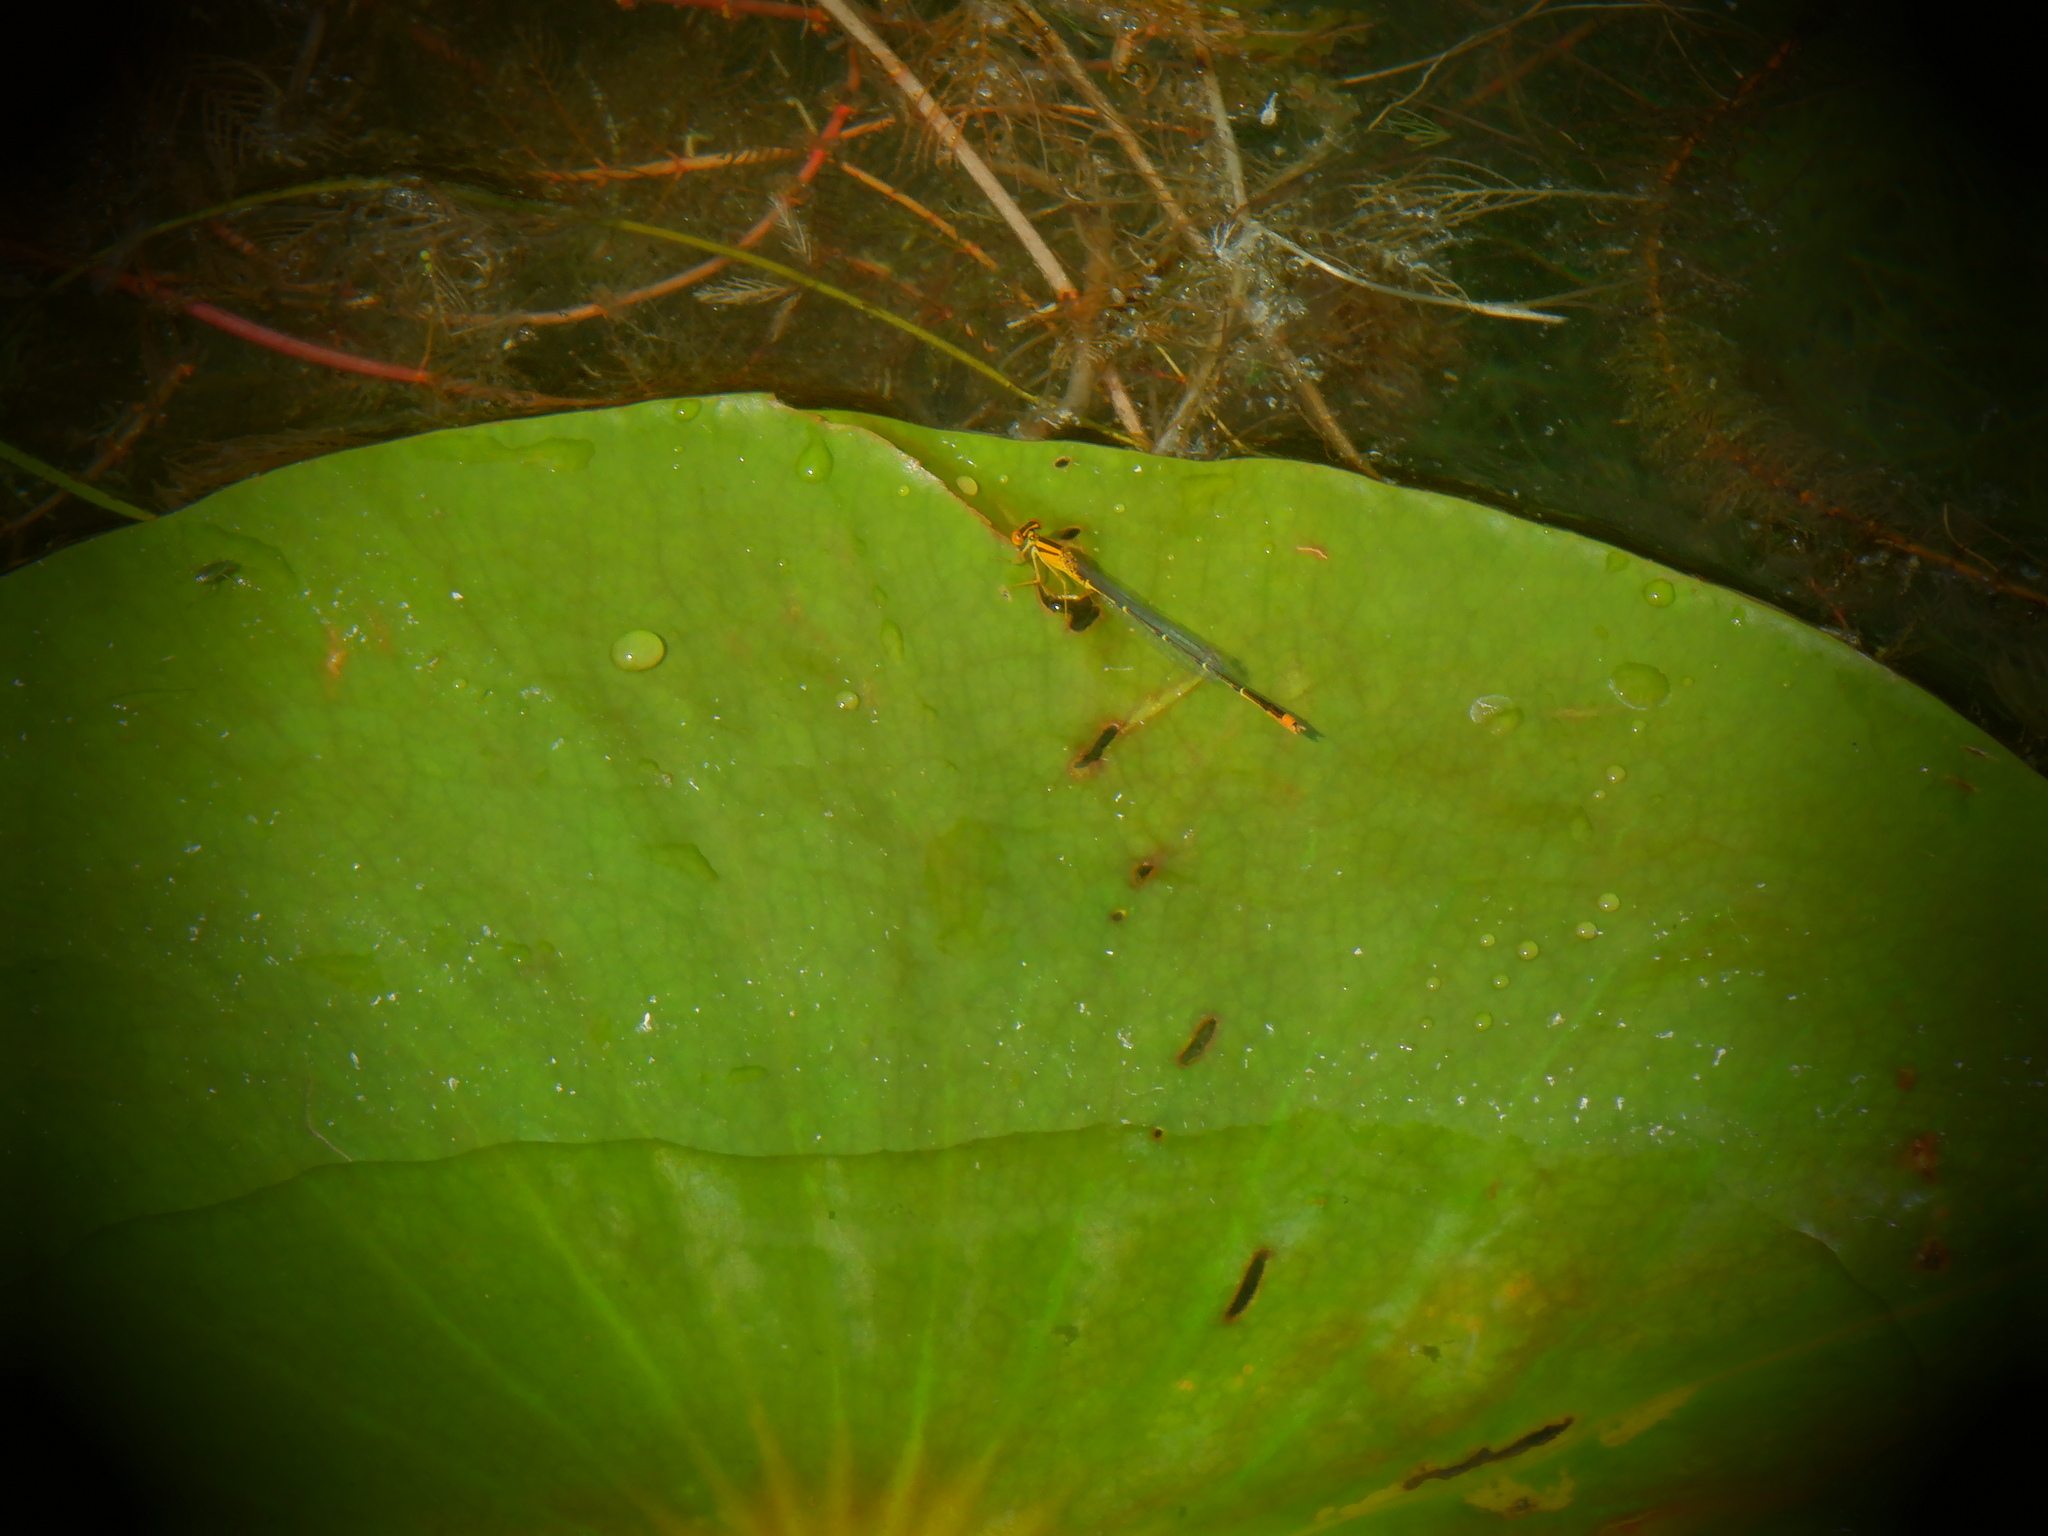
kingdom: Animalia
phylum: Arthropoda
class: Insecta
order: Odonata
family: Coenagrionidae
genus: Enallagma
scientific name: Enallagma signatum
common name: Orange bluet
